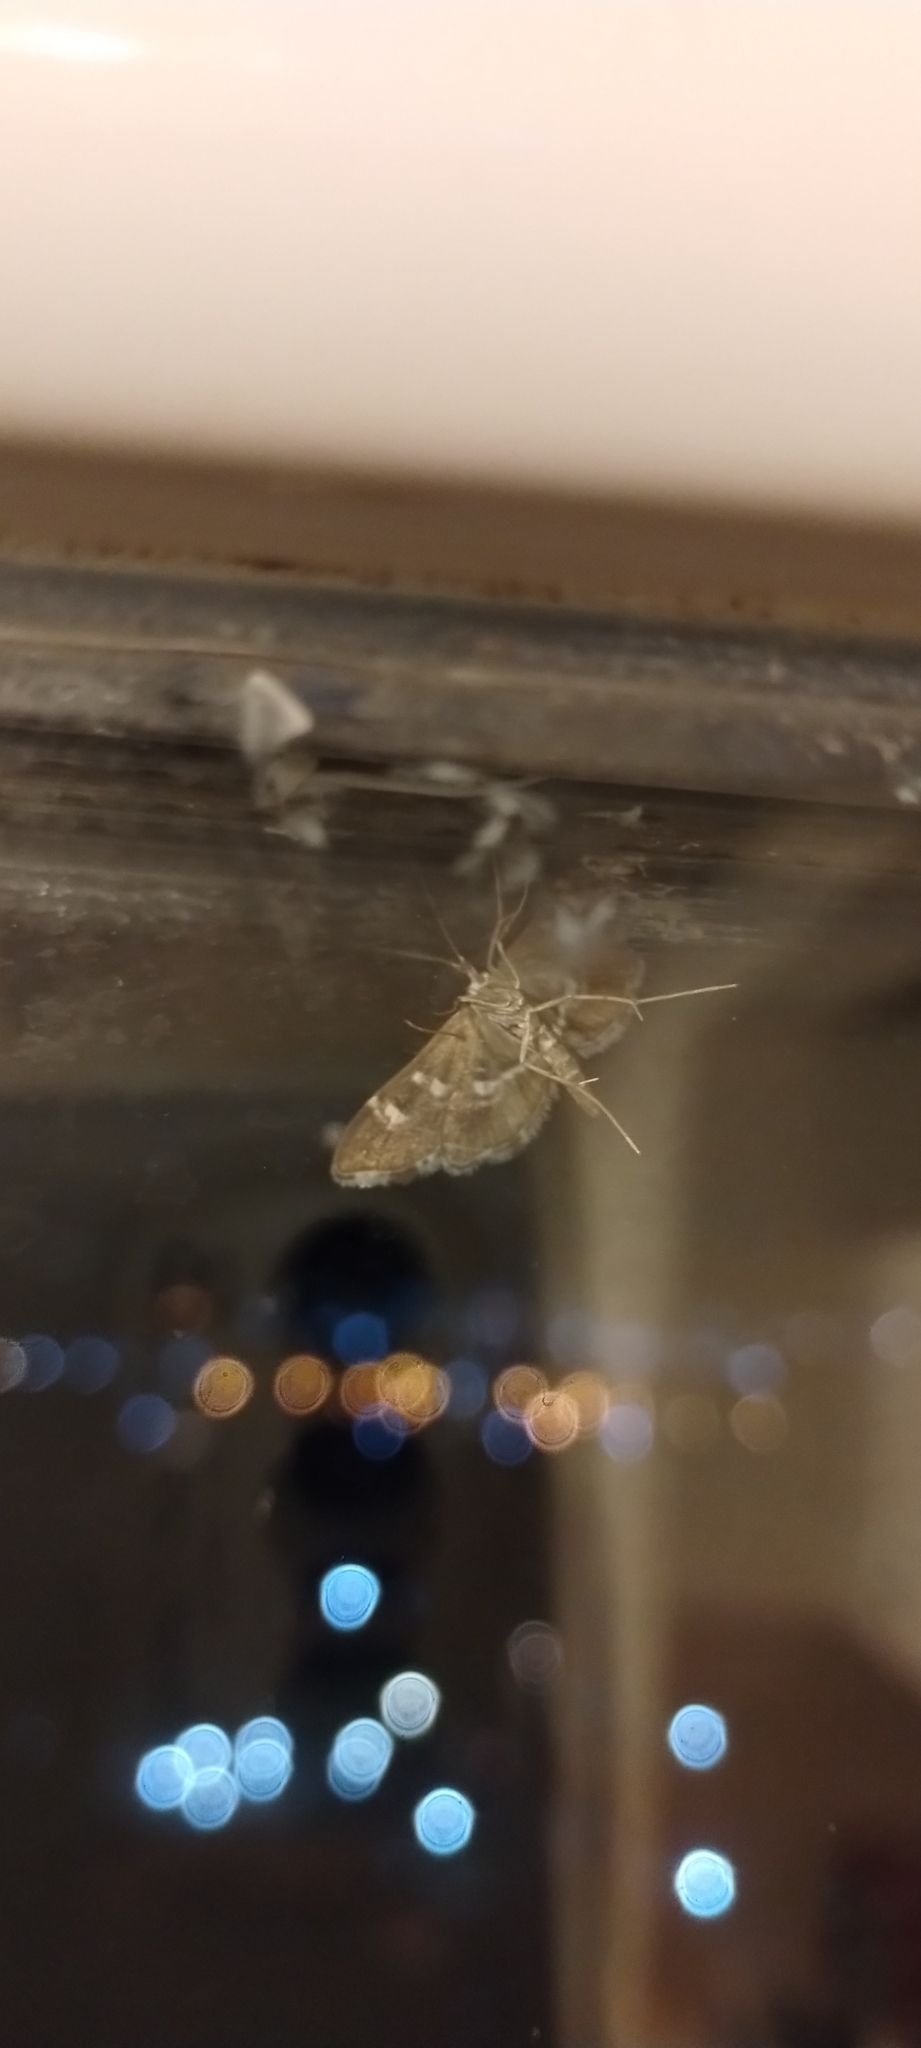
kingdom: Animalia
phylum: Arthropoda
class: Insecta
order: Lepidoptera
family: Crambidae
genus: Hymenia
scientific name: Hymenia perspectalis
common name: Spotted beet webworm
